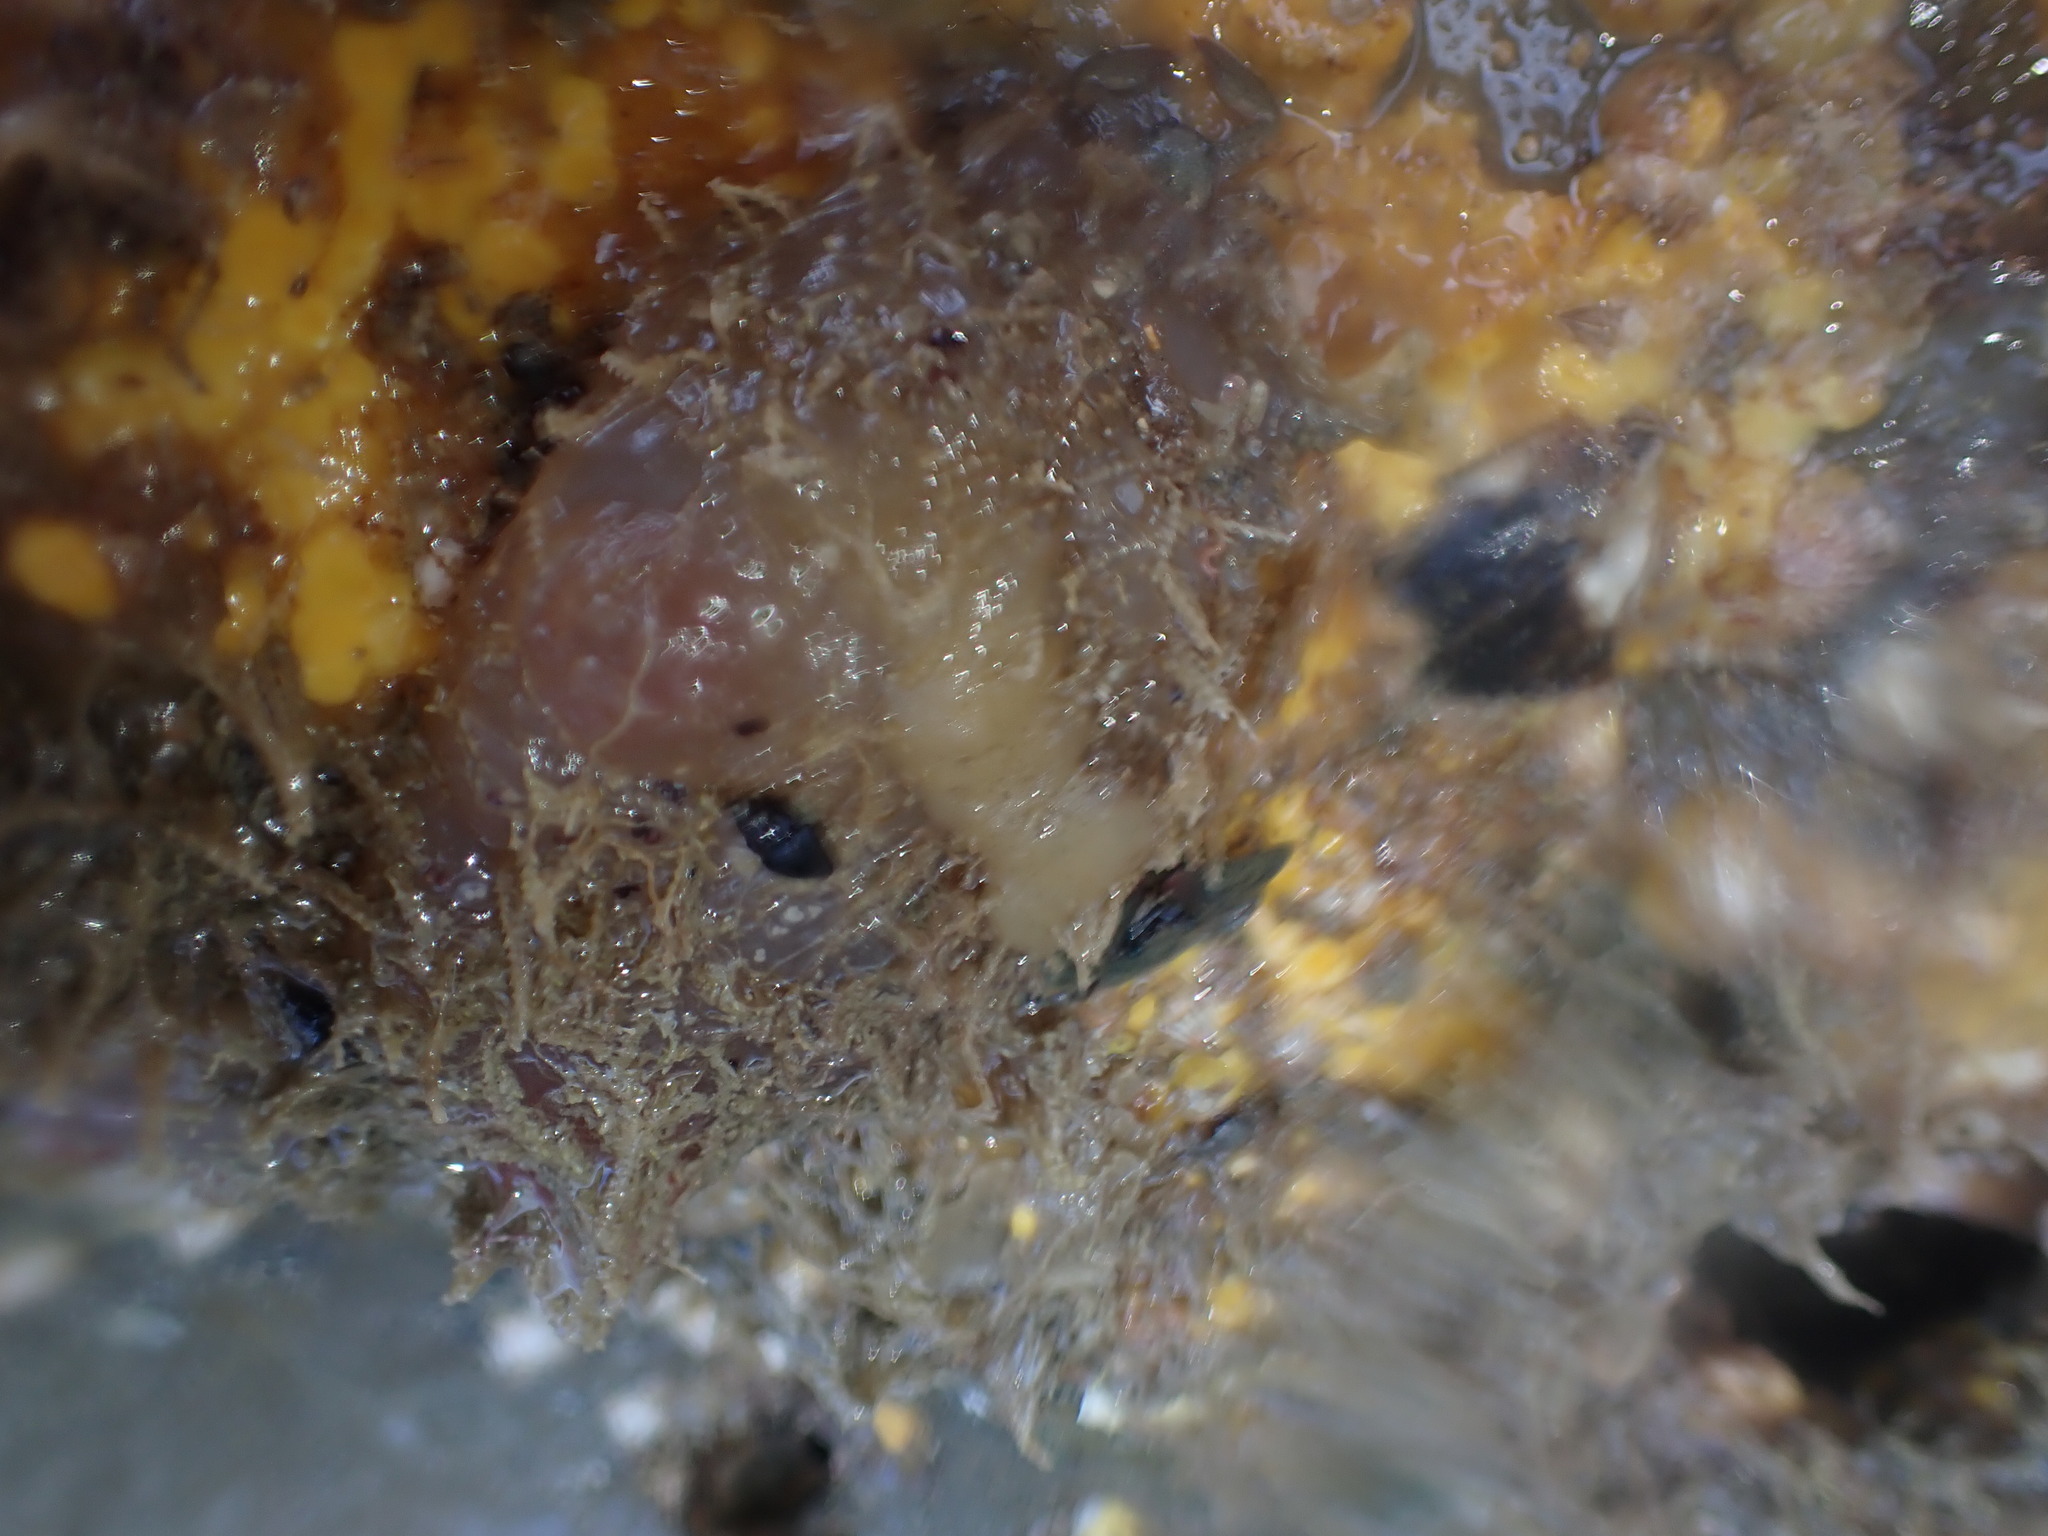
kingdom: Animalia
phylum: Mollusca
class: Gastropoda
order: Neogastropoda
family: Costellariidae
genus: Austromitra
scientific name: Austromitra rubiginosa
